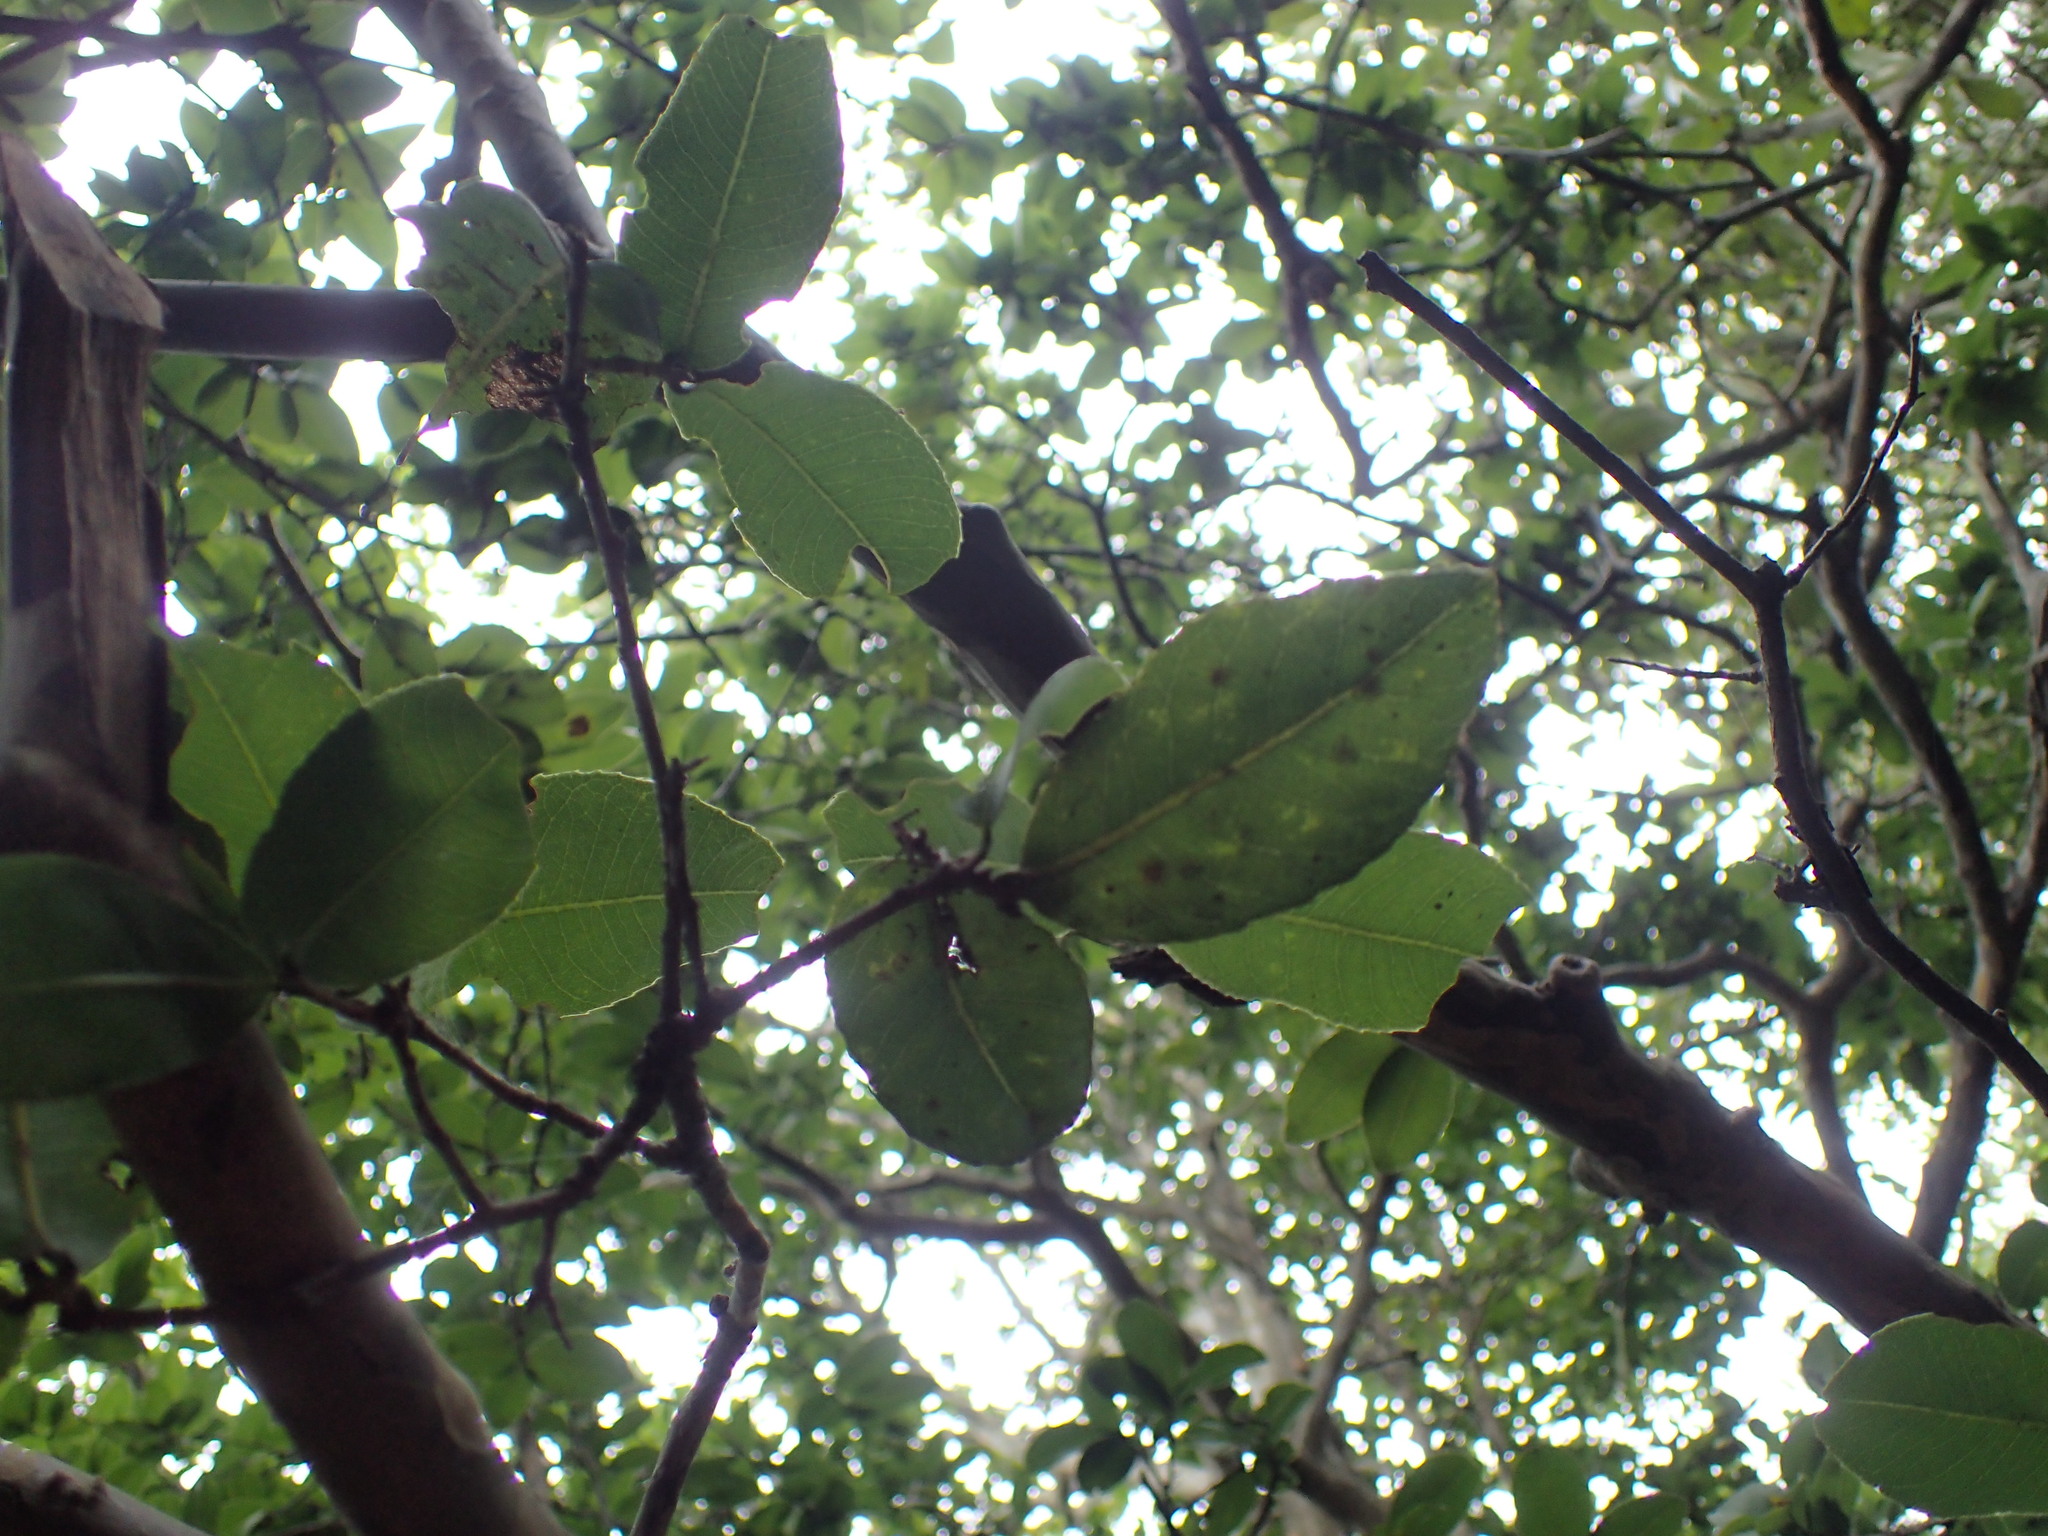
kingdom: Plantae
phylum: Tracheophyta
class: Magnoliopsida
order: Malpighiales
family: Ochnaceae
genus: Ochna
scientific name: Ochna arborea
